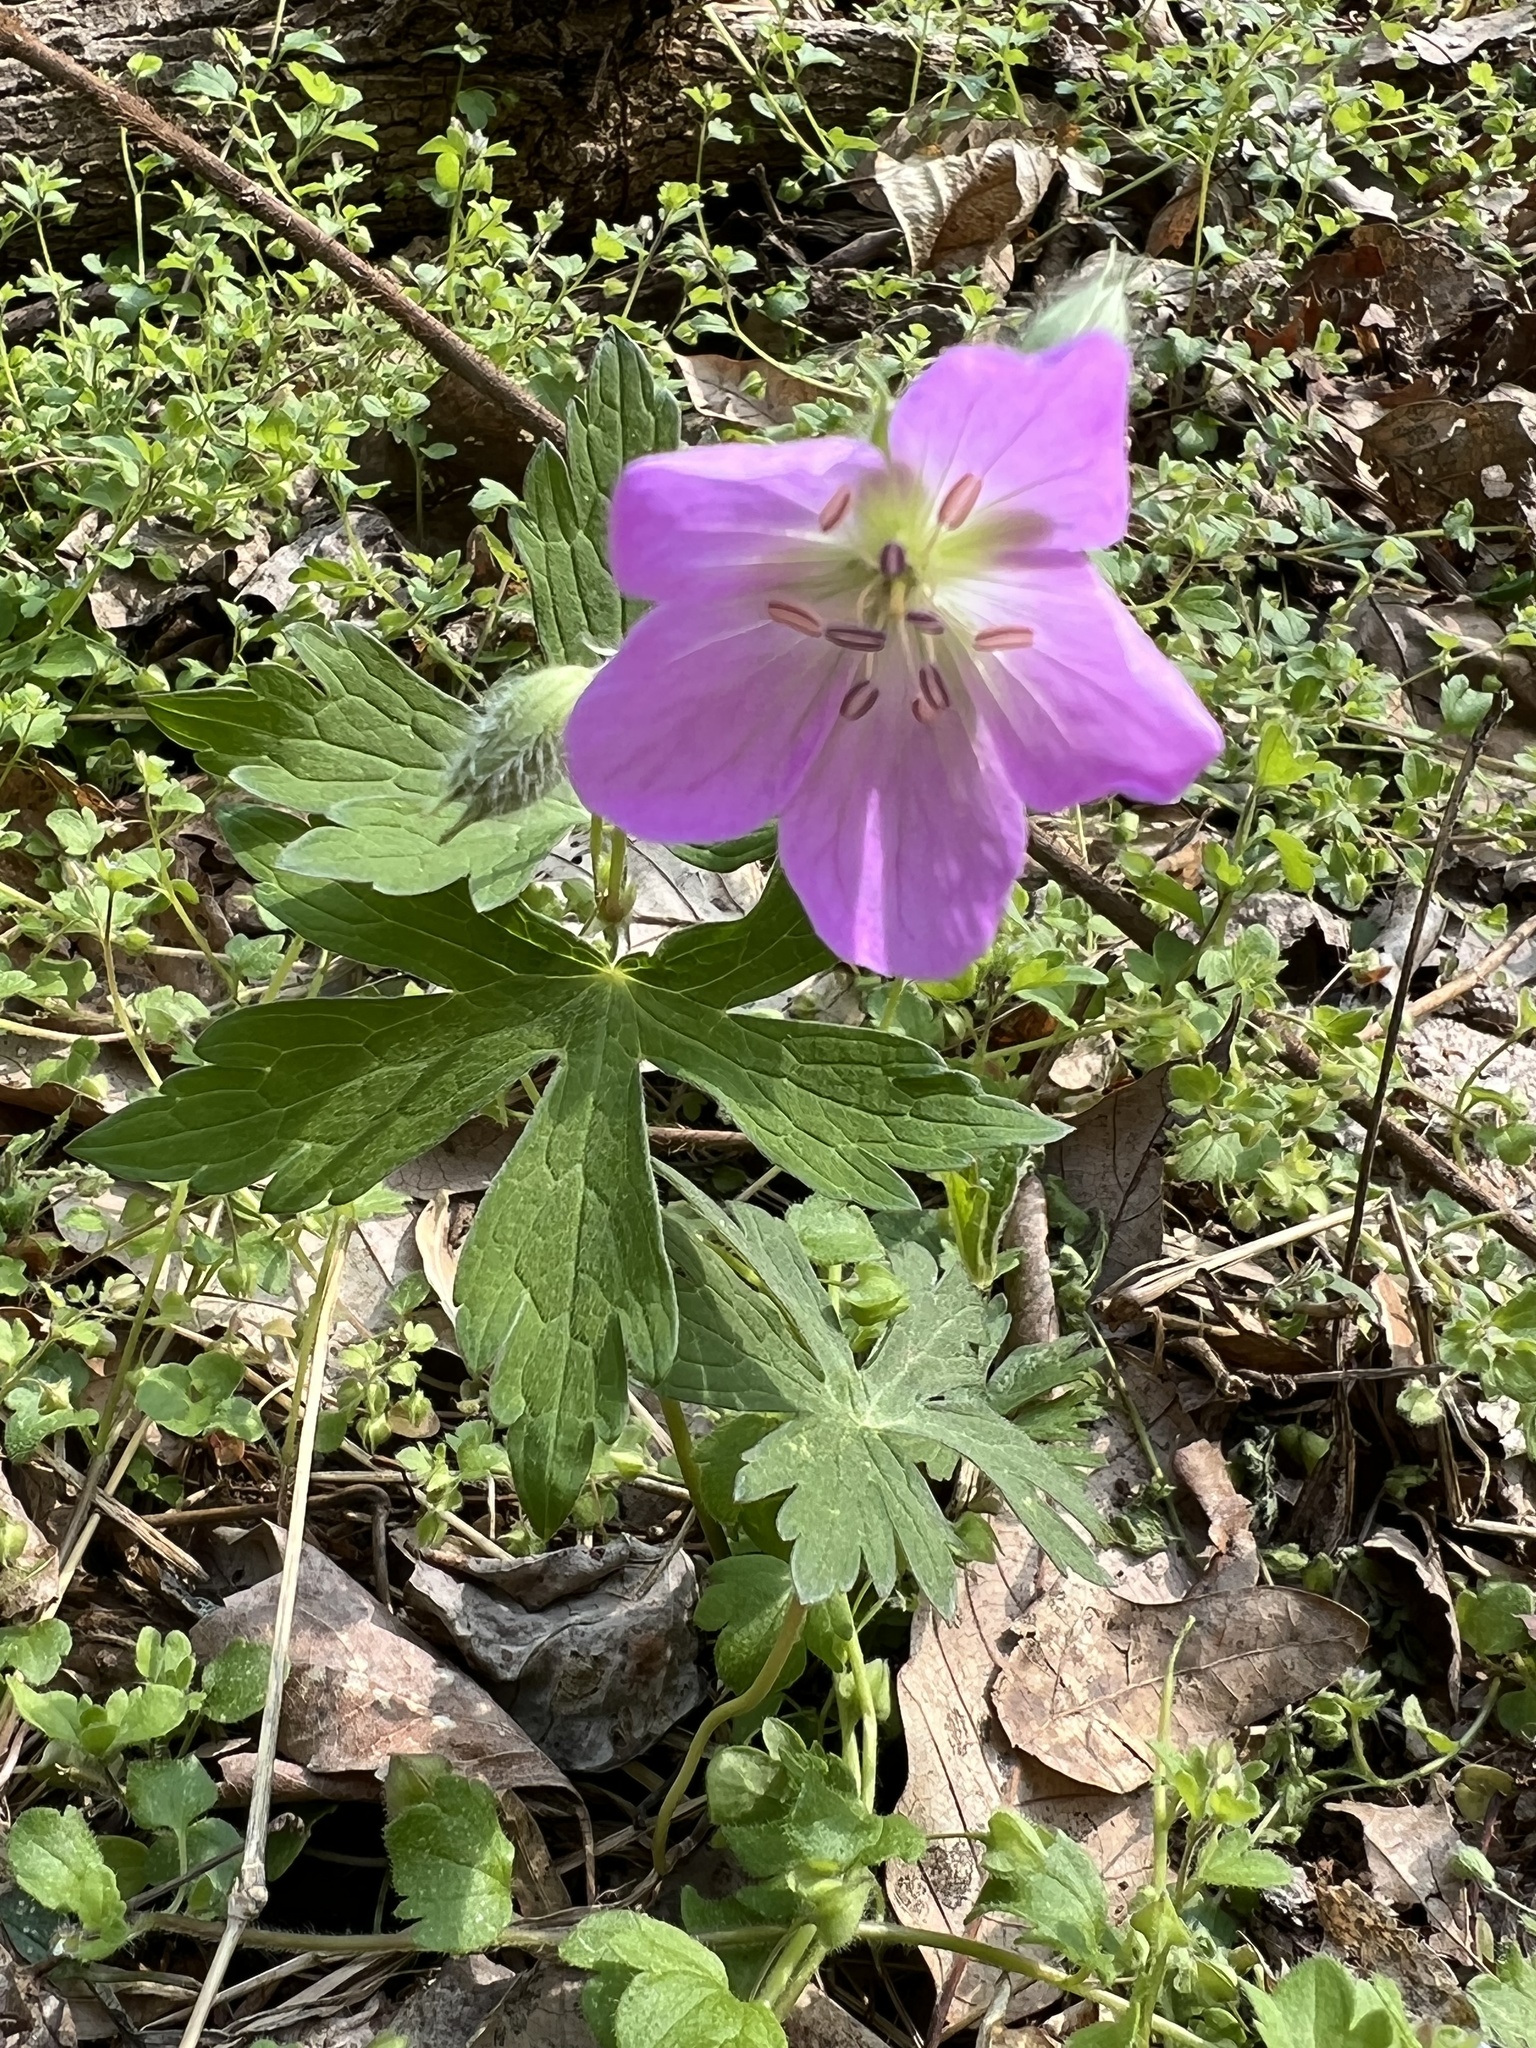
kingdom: Plantae
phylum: Tracheophyta
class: Magnoliopsida
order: Geraniales
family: Geraniaceae
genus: Geranium
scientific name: Geranium maculatum
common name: Spotted geranium
